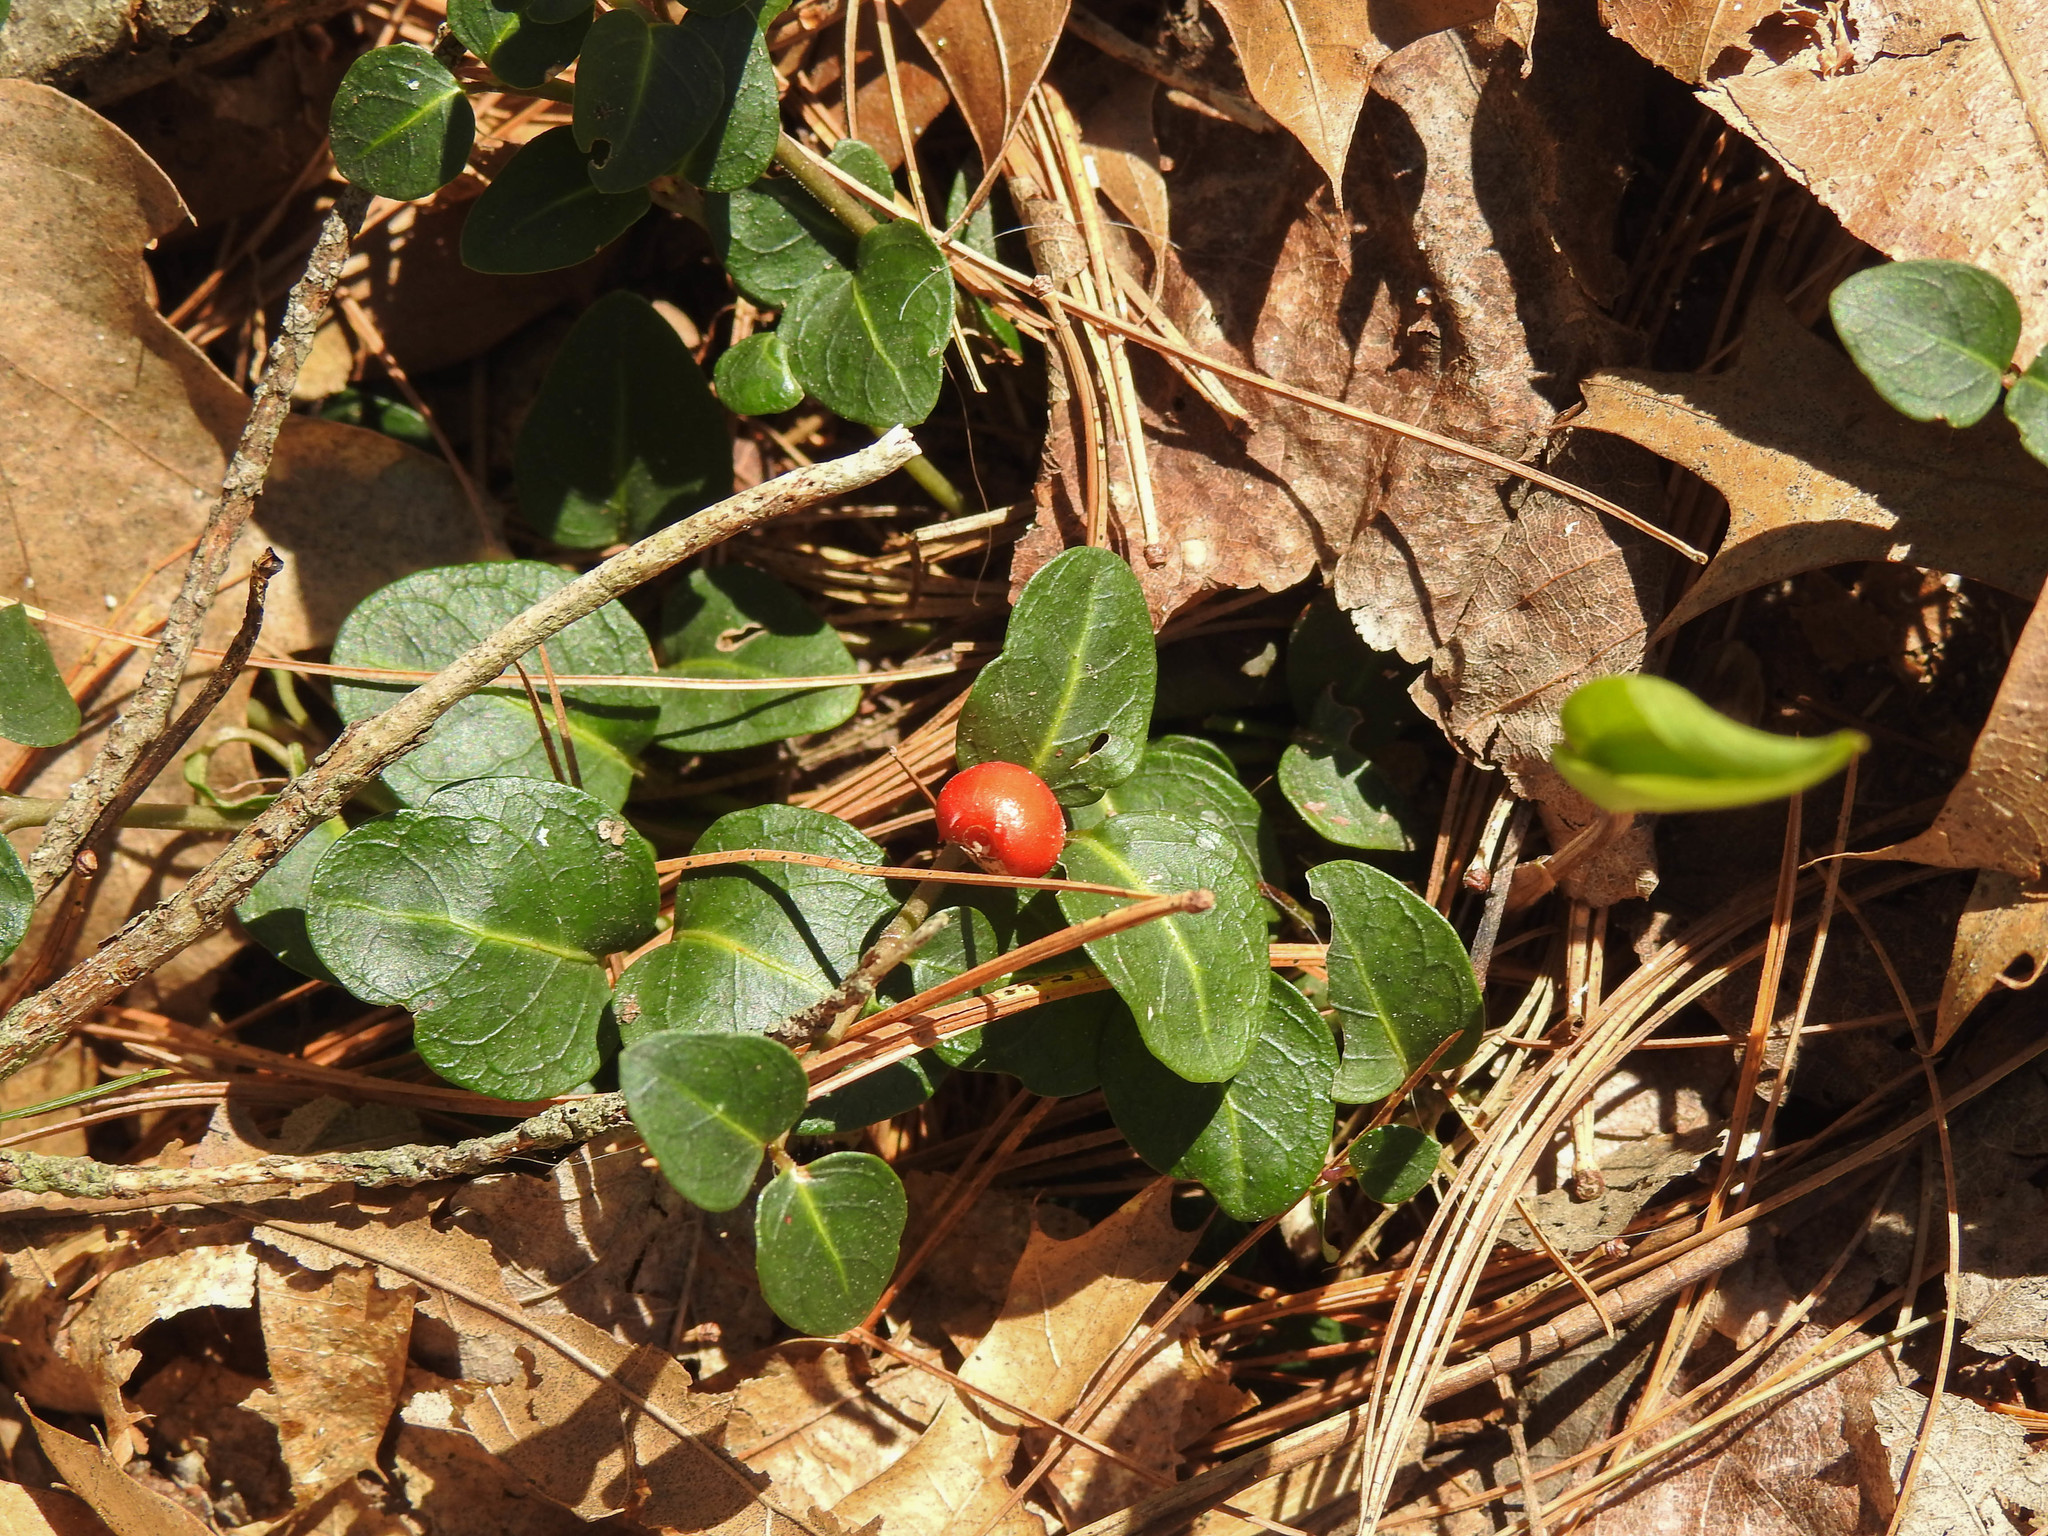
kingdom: Plantae
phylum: Tracheophyta
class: Magnoliopsida
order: Gentianales
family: Rubiaceae
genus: Mitchella
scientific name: Mitchella repens
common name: Partridge-berry
